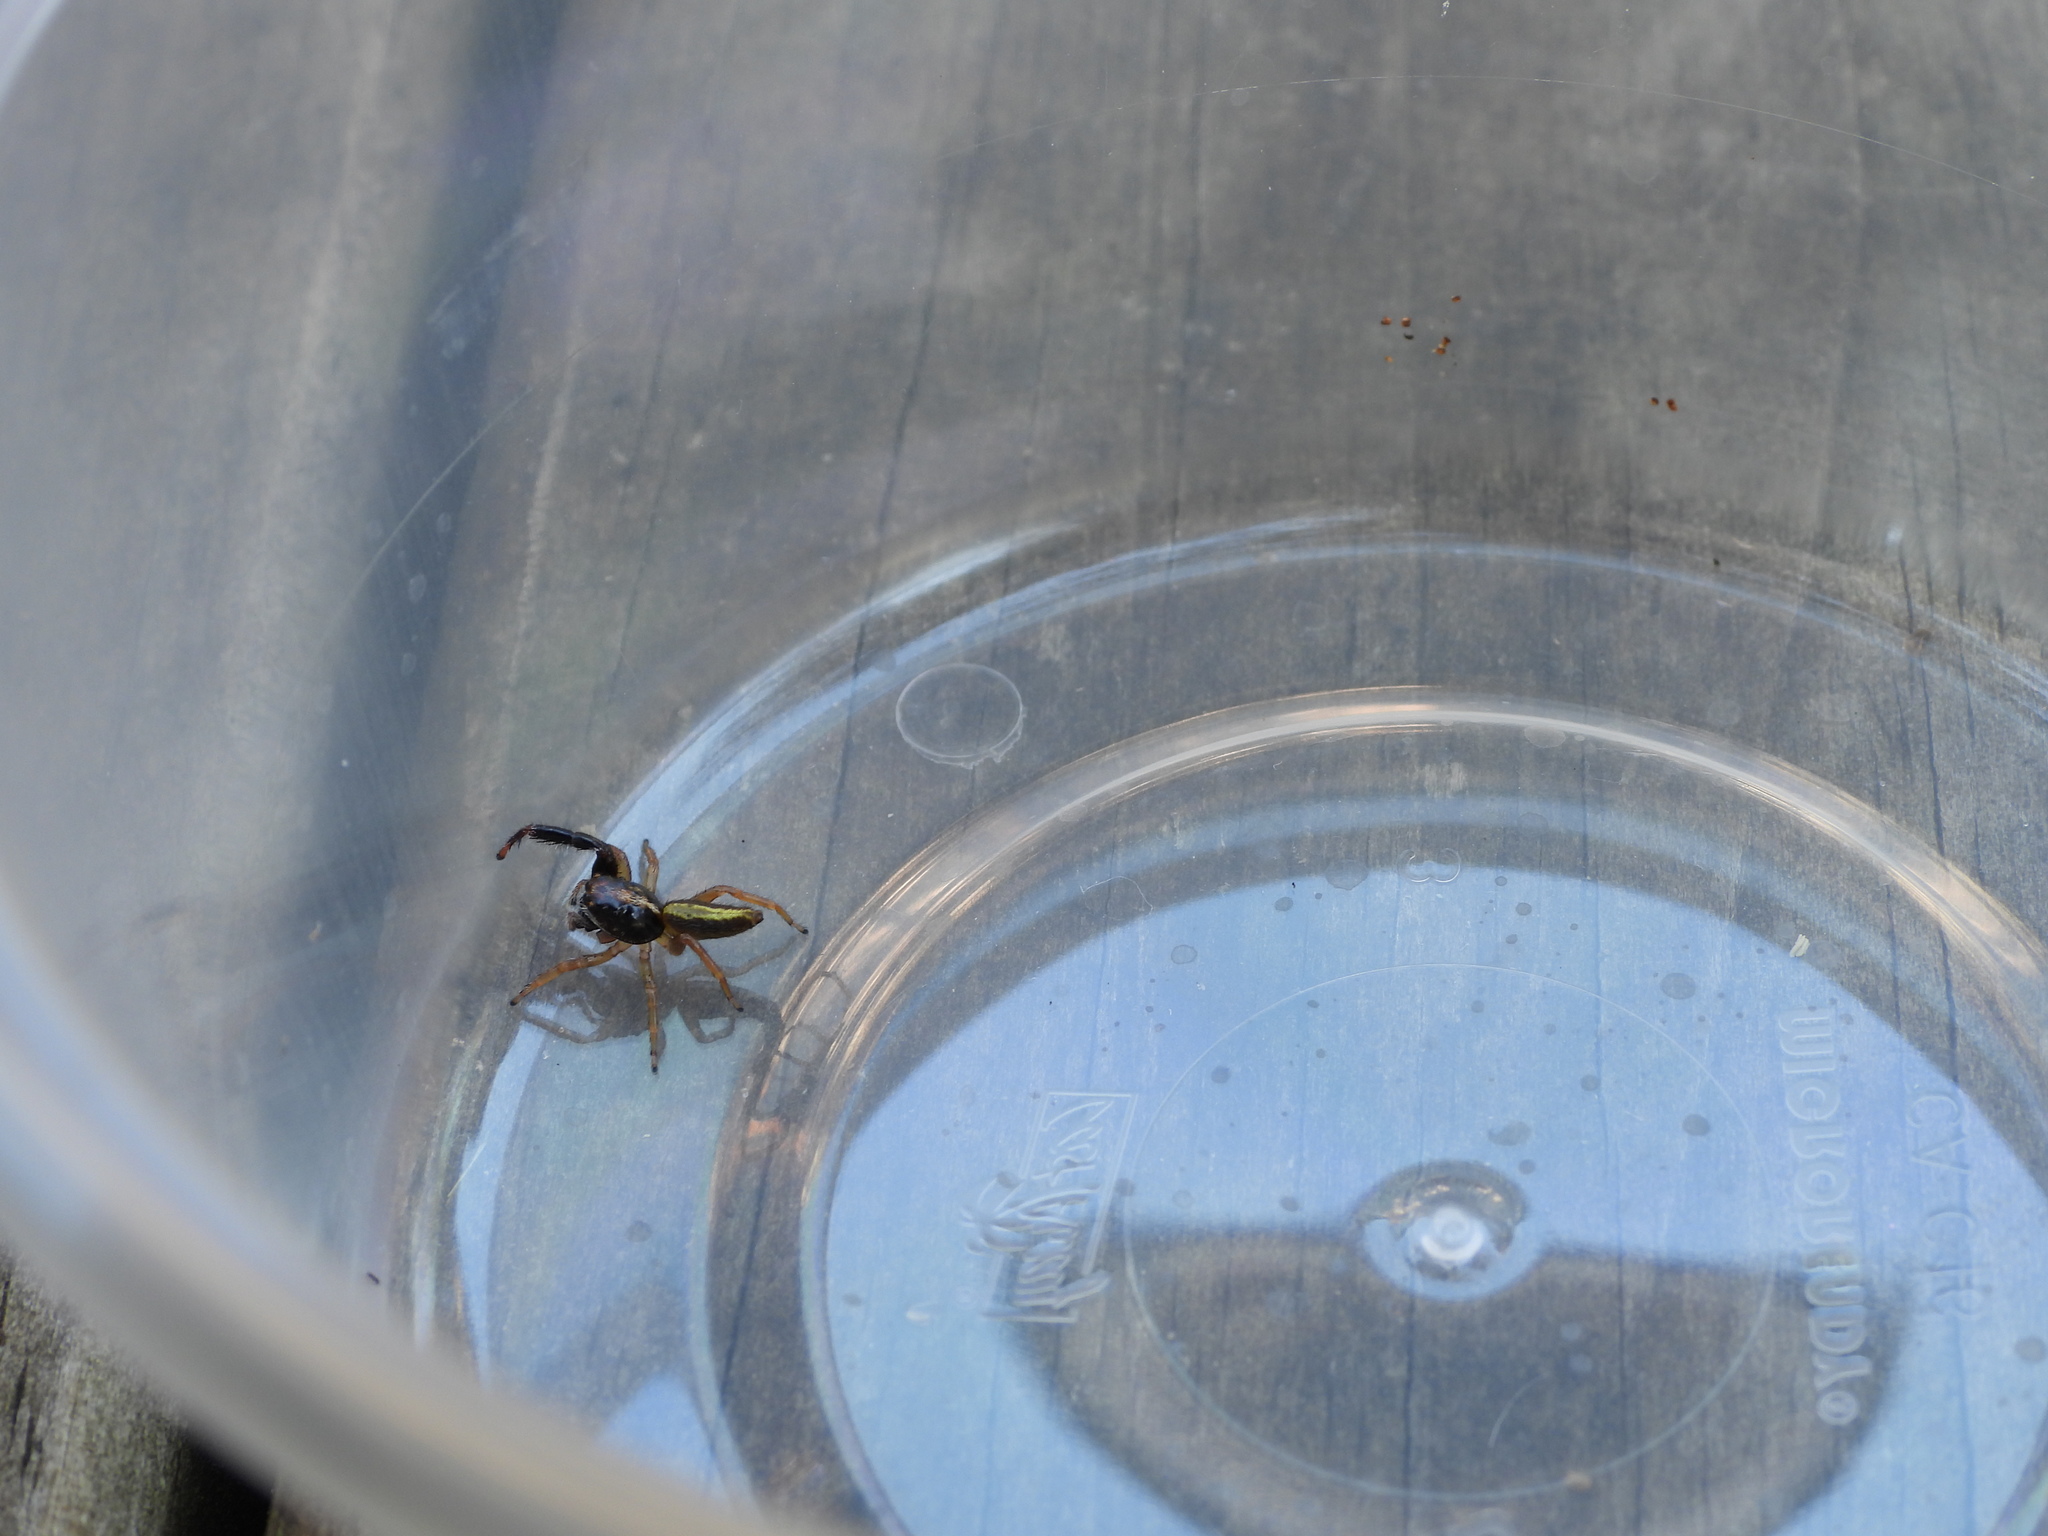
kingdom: Animalia
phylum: Arthropoda
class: Arachnida
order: Araneae
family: Salticidae
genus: Trite
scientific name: Trite planiceps
